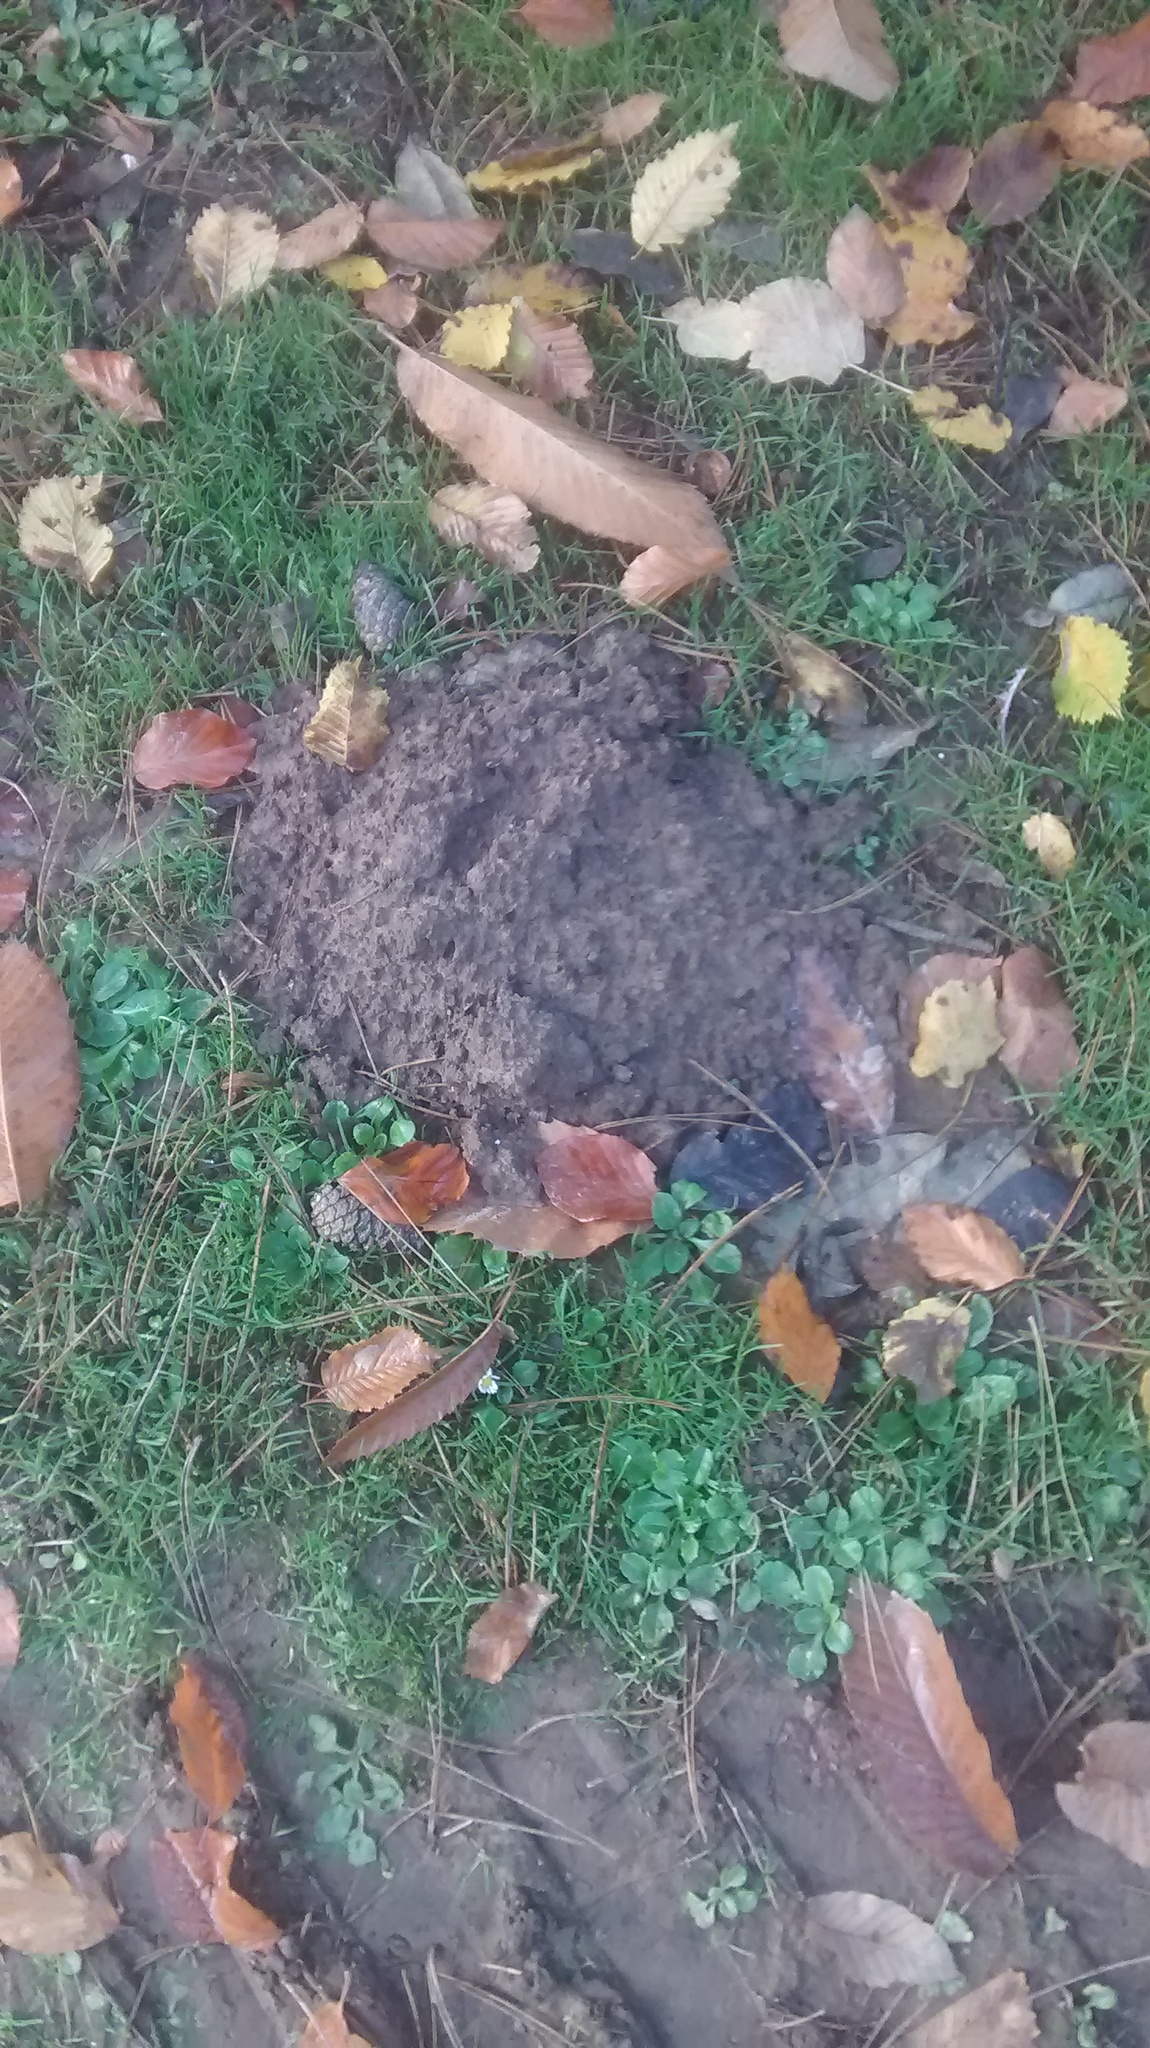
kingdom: Animalia
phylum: Chordata
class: Mammalia
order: Soricomorpha
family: Talpidae
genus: Talpa
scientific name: Talpa europaea
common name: European mole
